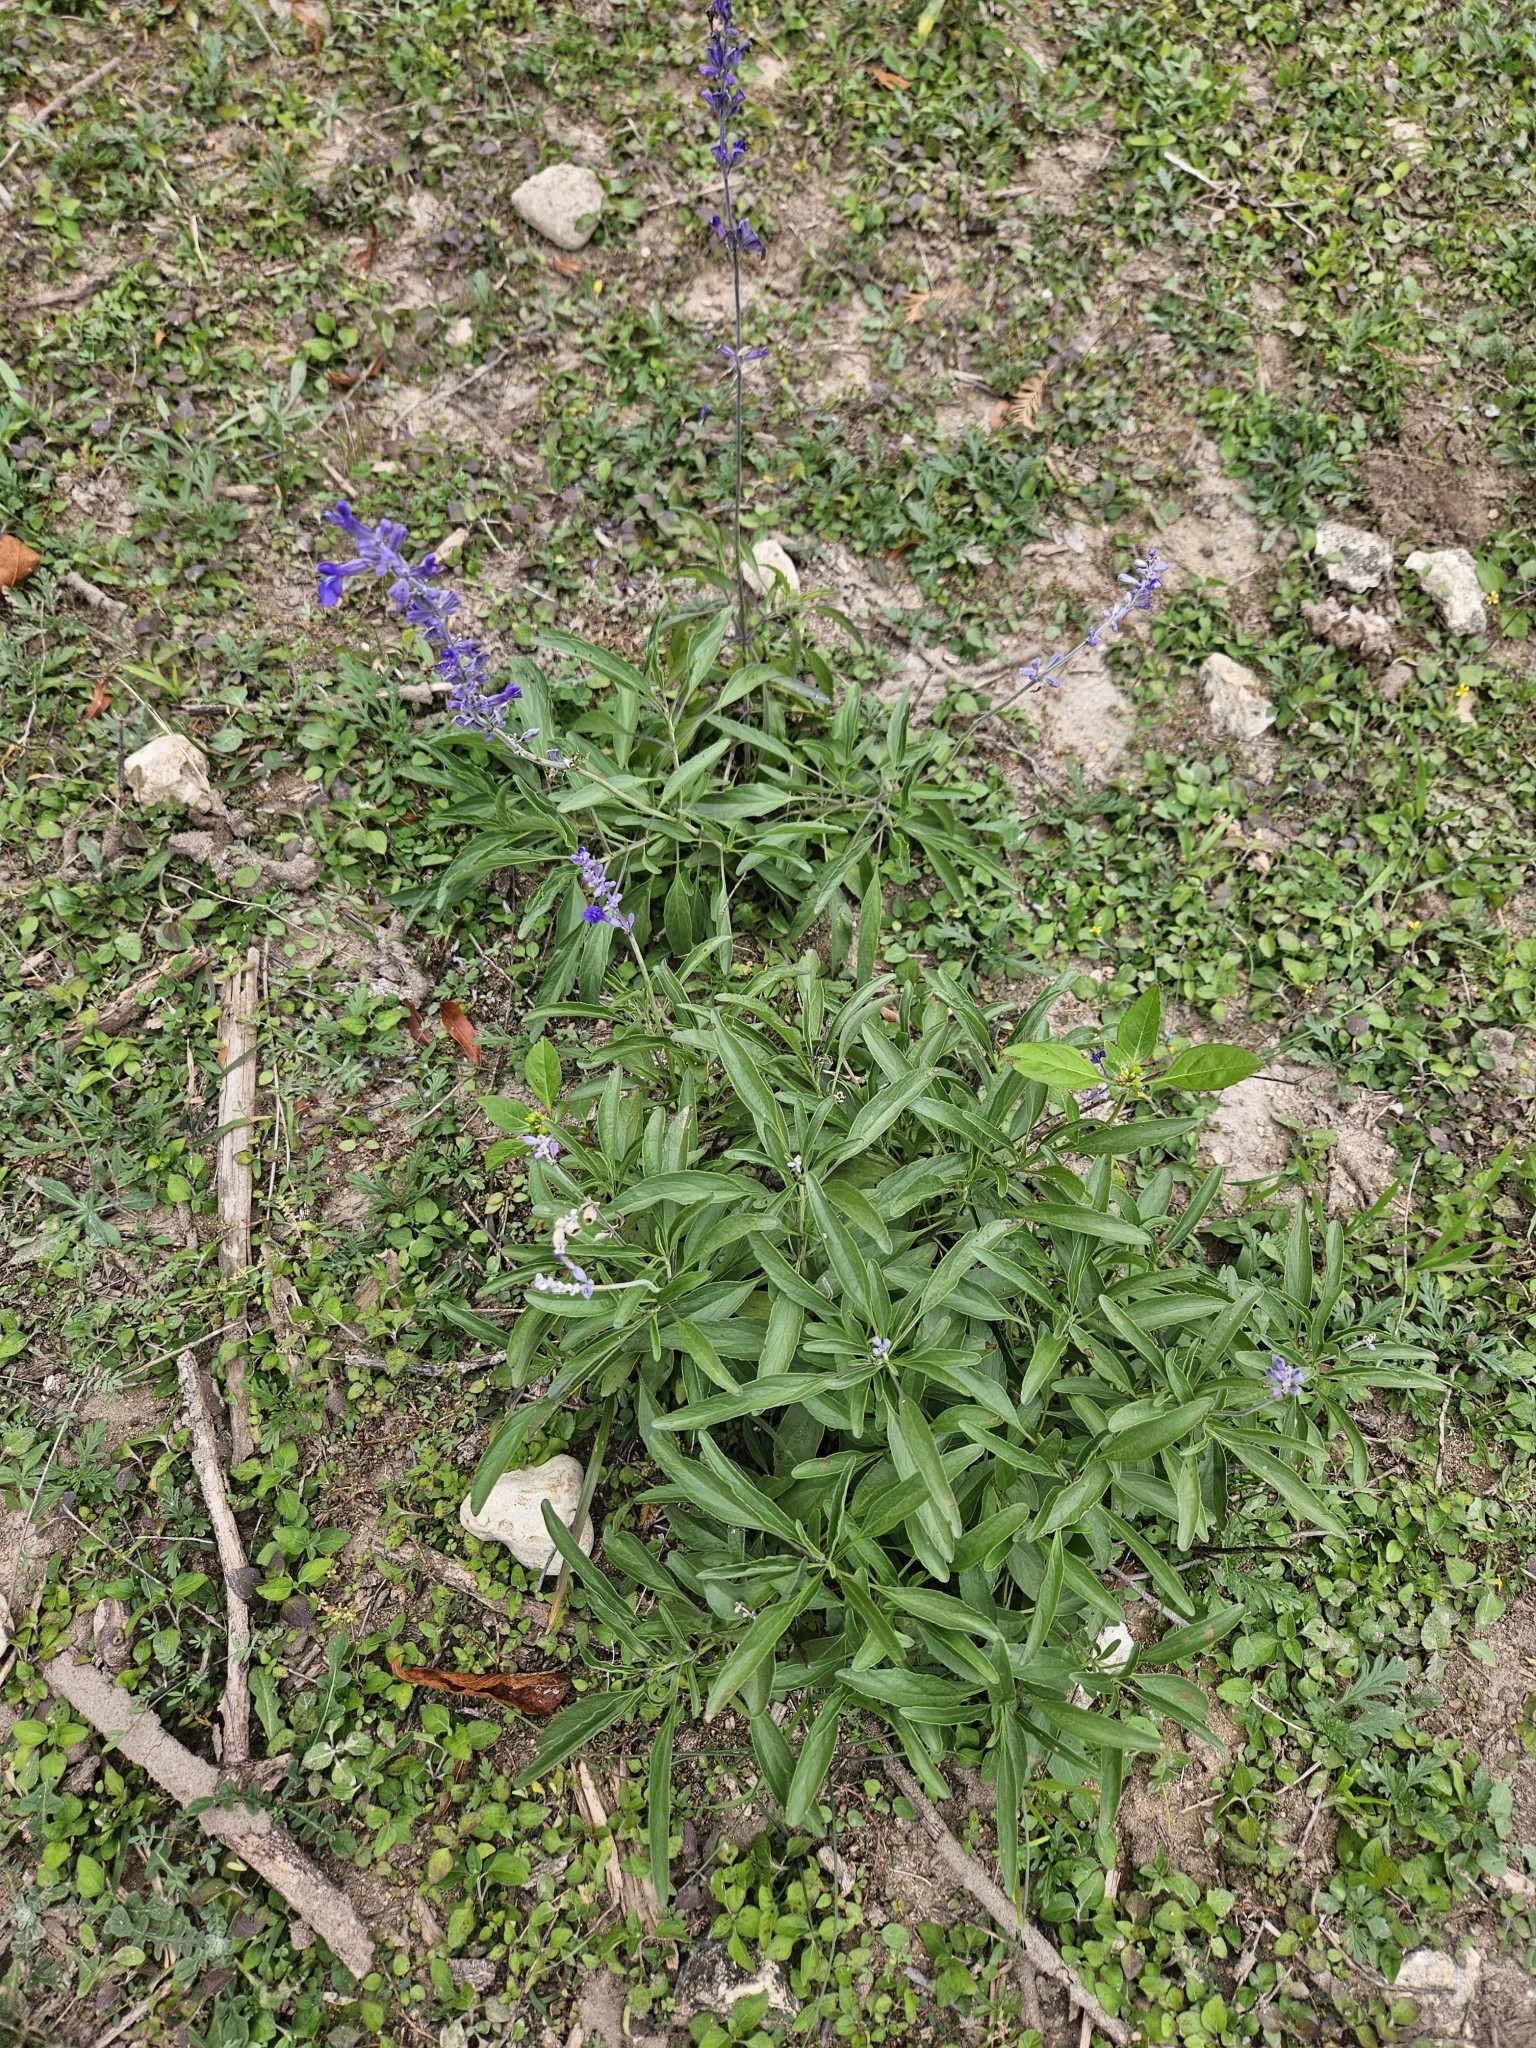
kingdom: Plantae
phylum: Tracheophyta
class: Magnoliopsida
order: Lamiales
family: Lamiaceae
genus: Salvia
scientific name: Salvia farinacea
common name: Mealy sage
